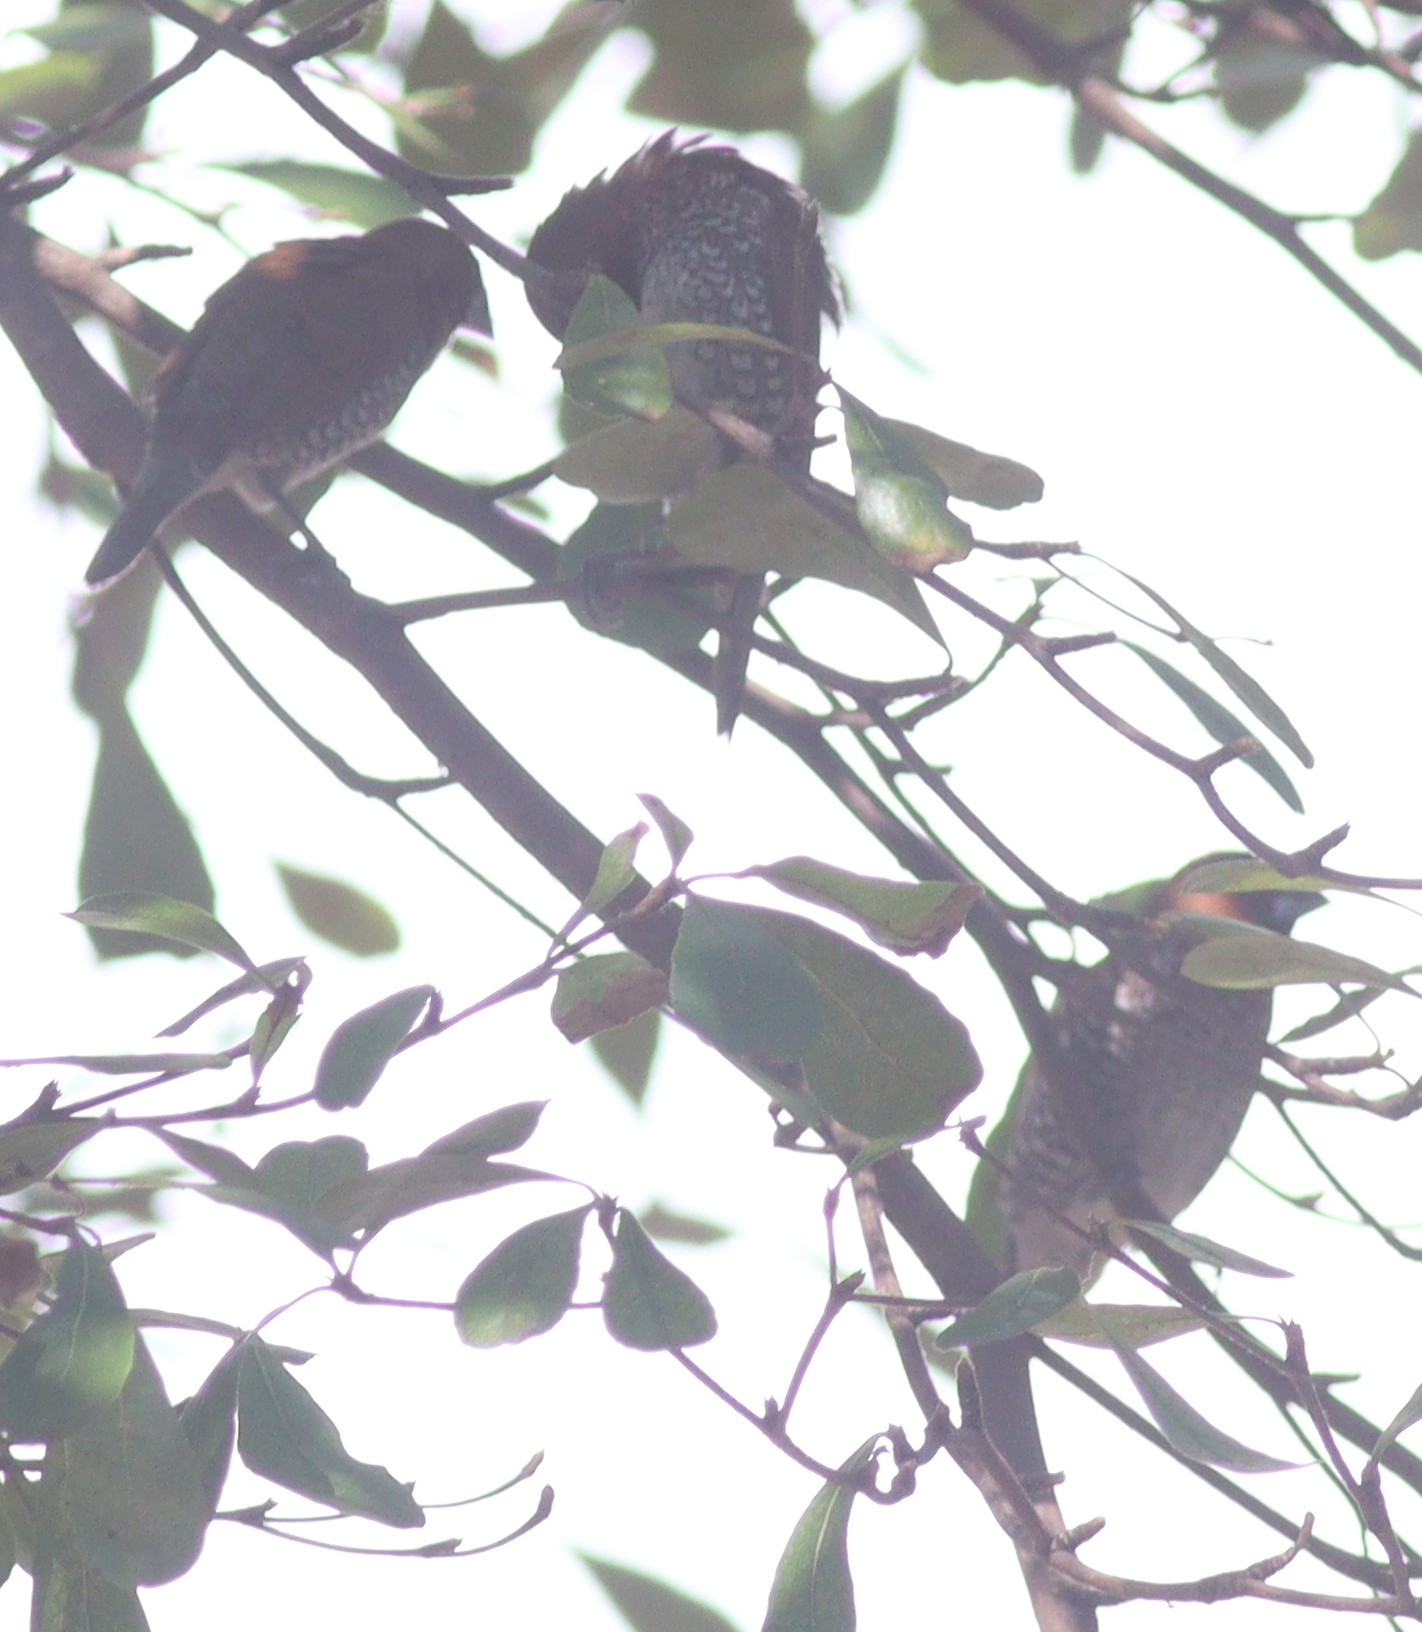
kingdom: Animalia
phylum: Chordata
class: Aves
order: Passeriformes
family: Estrildidae
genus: Lonchura
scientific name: Lonchura punctulata
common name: Scaly-breasted munia
